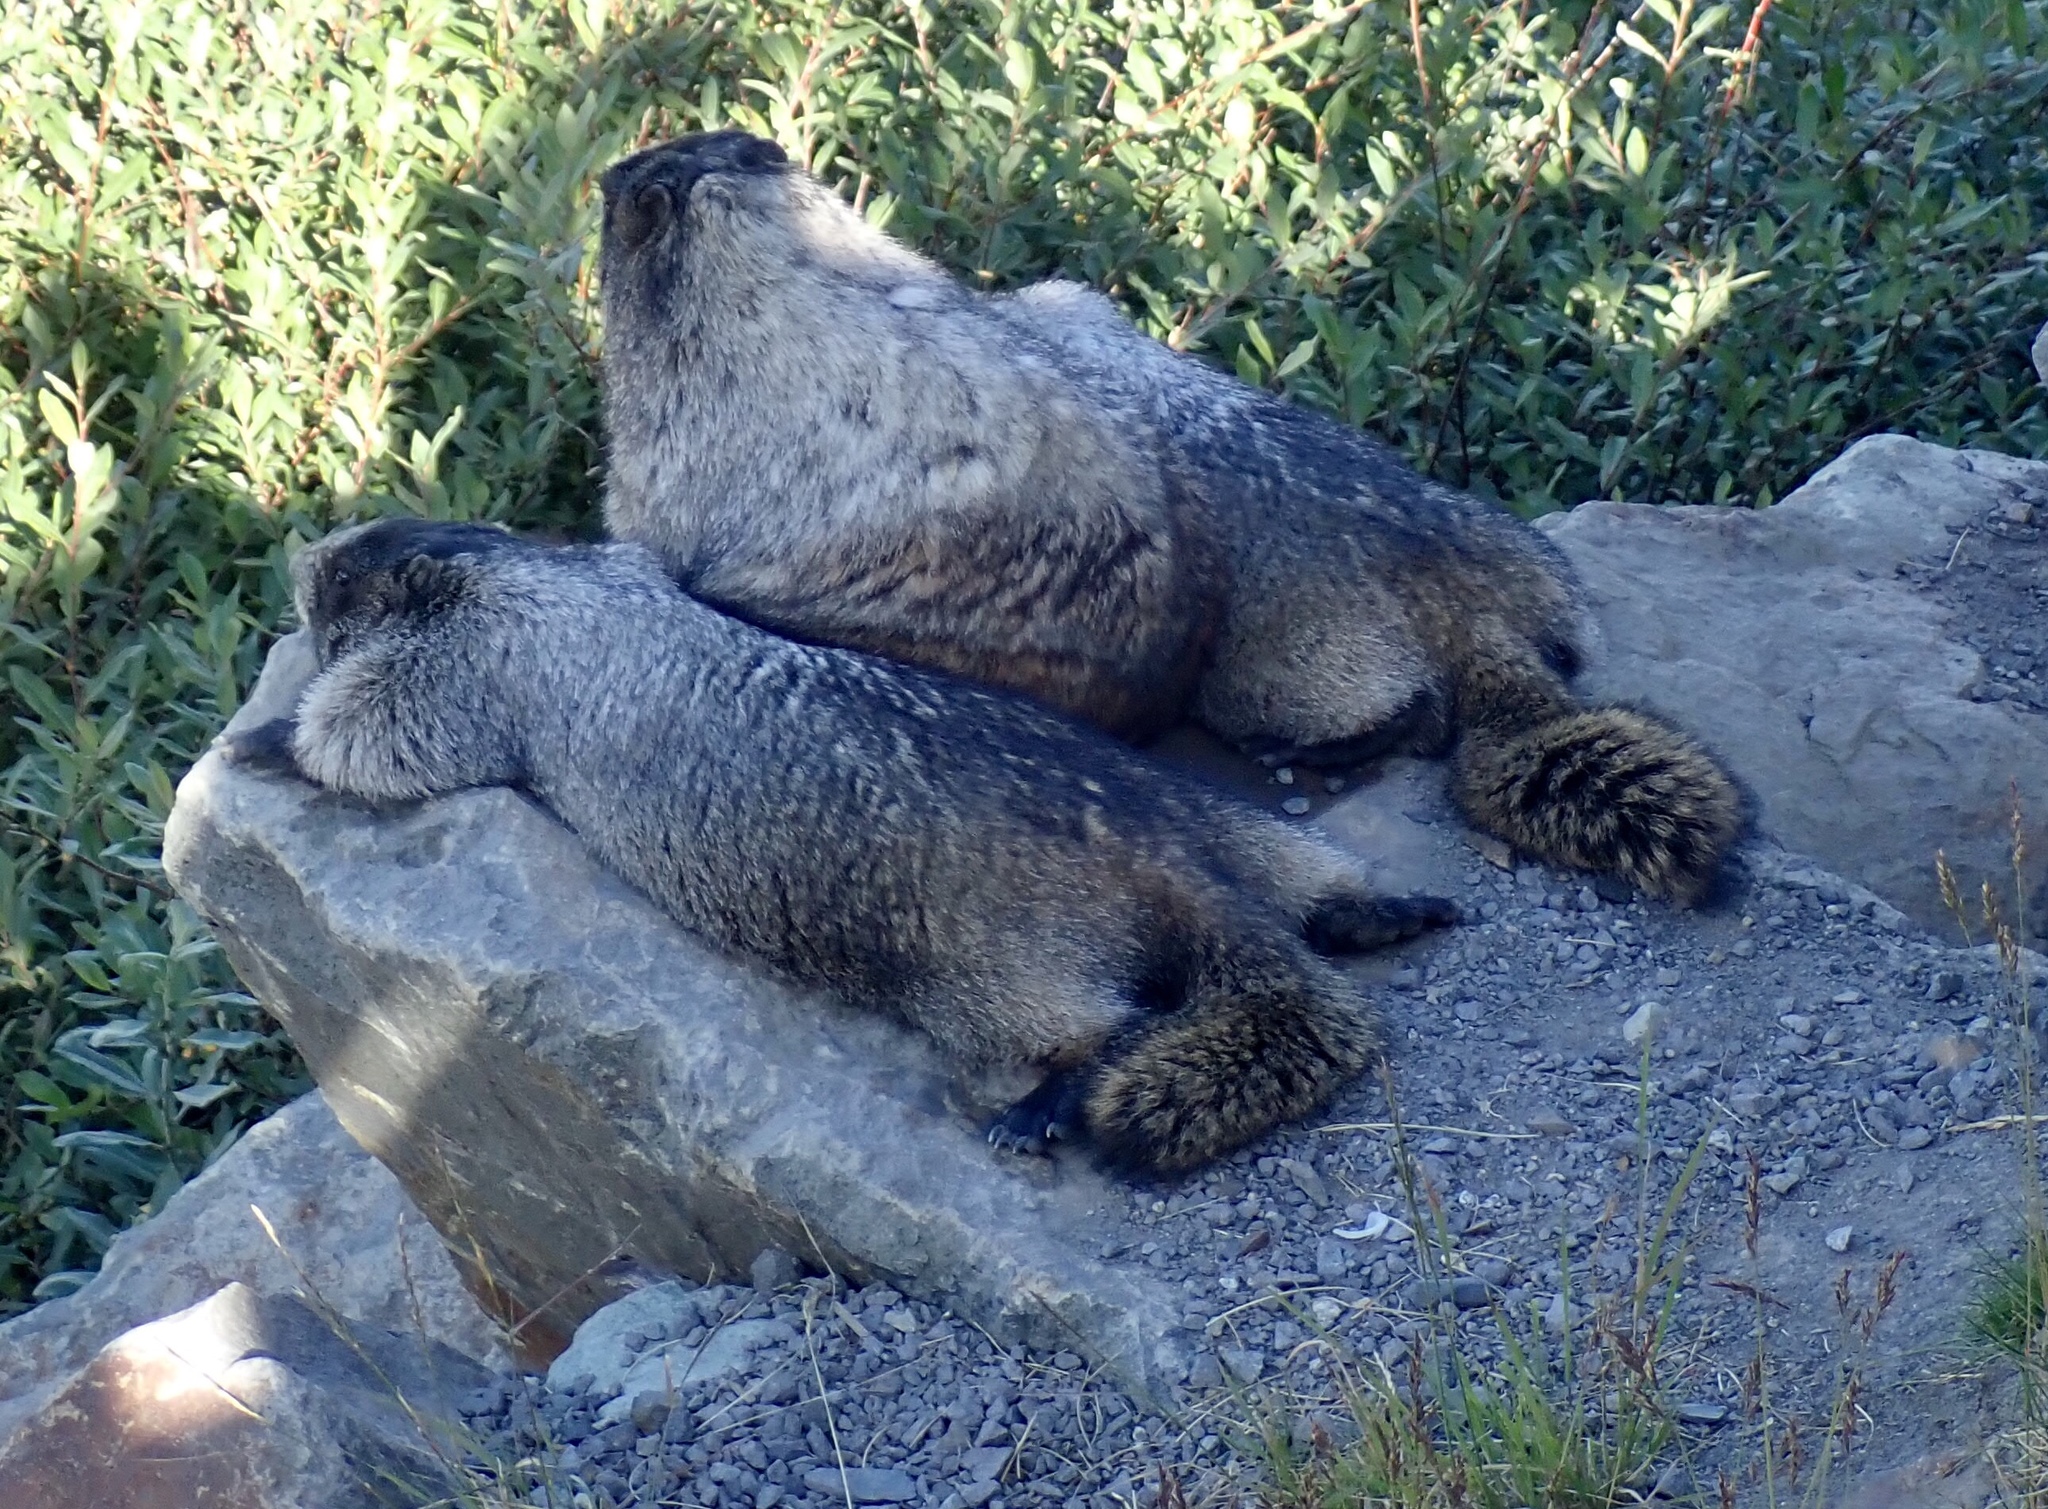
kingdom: Animalia
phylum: Chordata
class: Mammalia
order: Rodentia
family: Sciuridae
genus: Marmota
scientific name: Marmota caligata
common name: Hoary marmot
